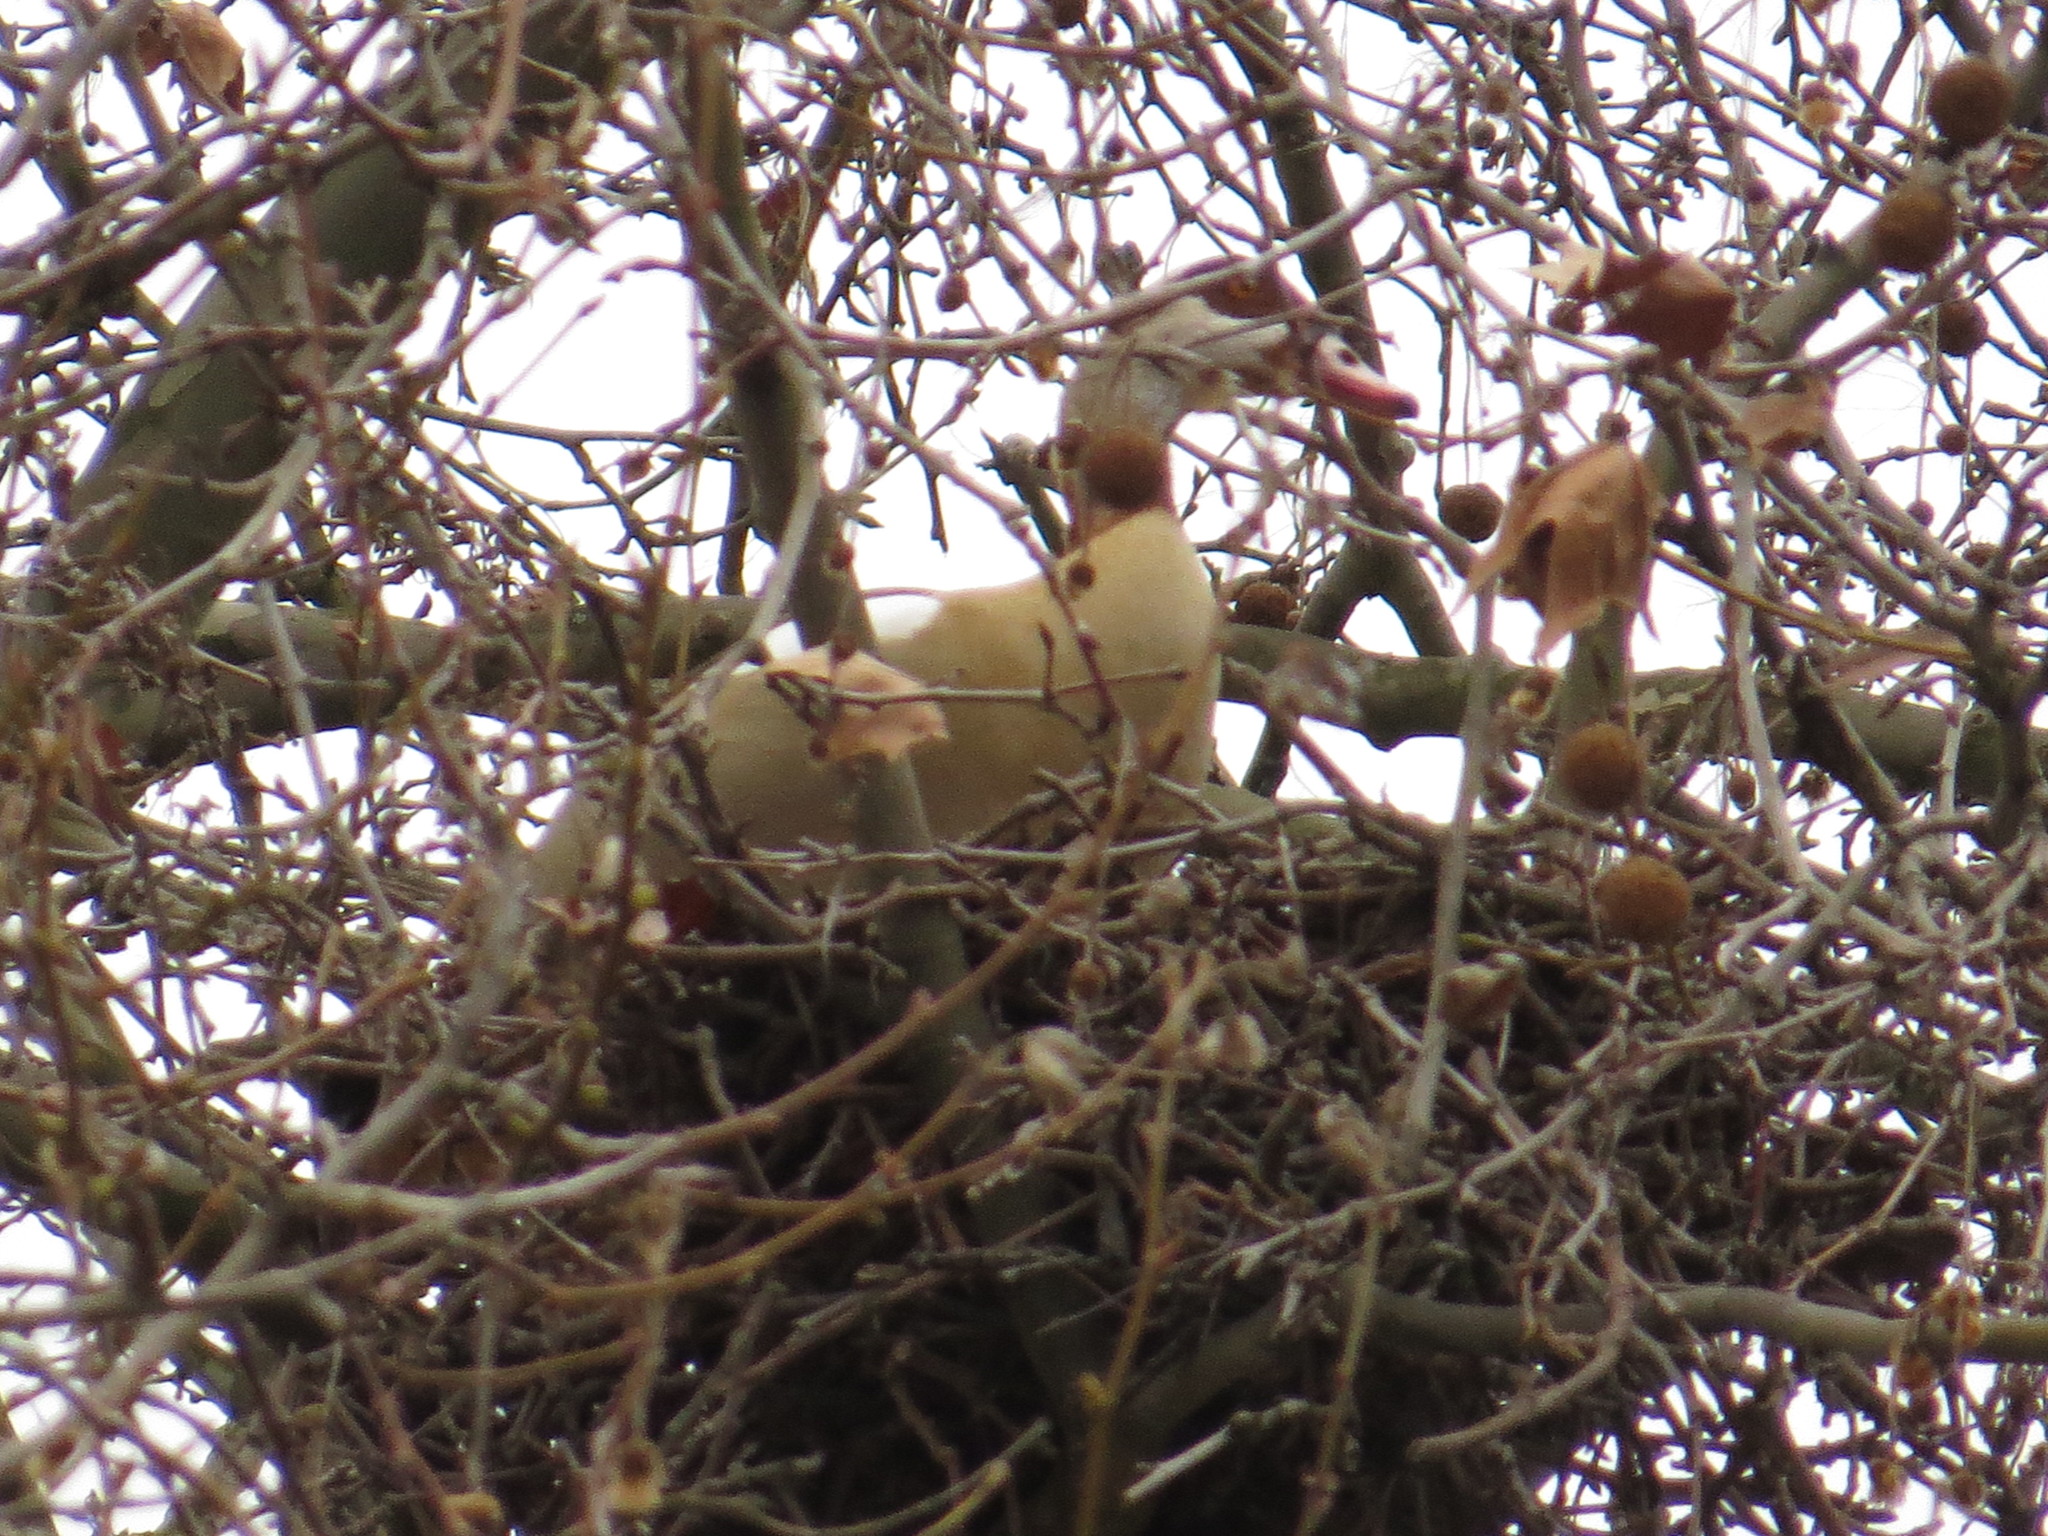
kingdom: Animalia
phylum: Chordata
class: Aves
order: Anseriformes
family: Anatidae
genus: Alopochen
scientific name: Alopochen aegyptiaca
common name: Egyptian goose
